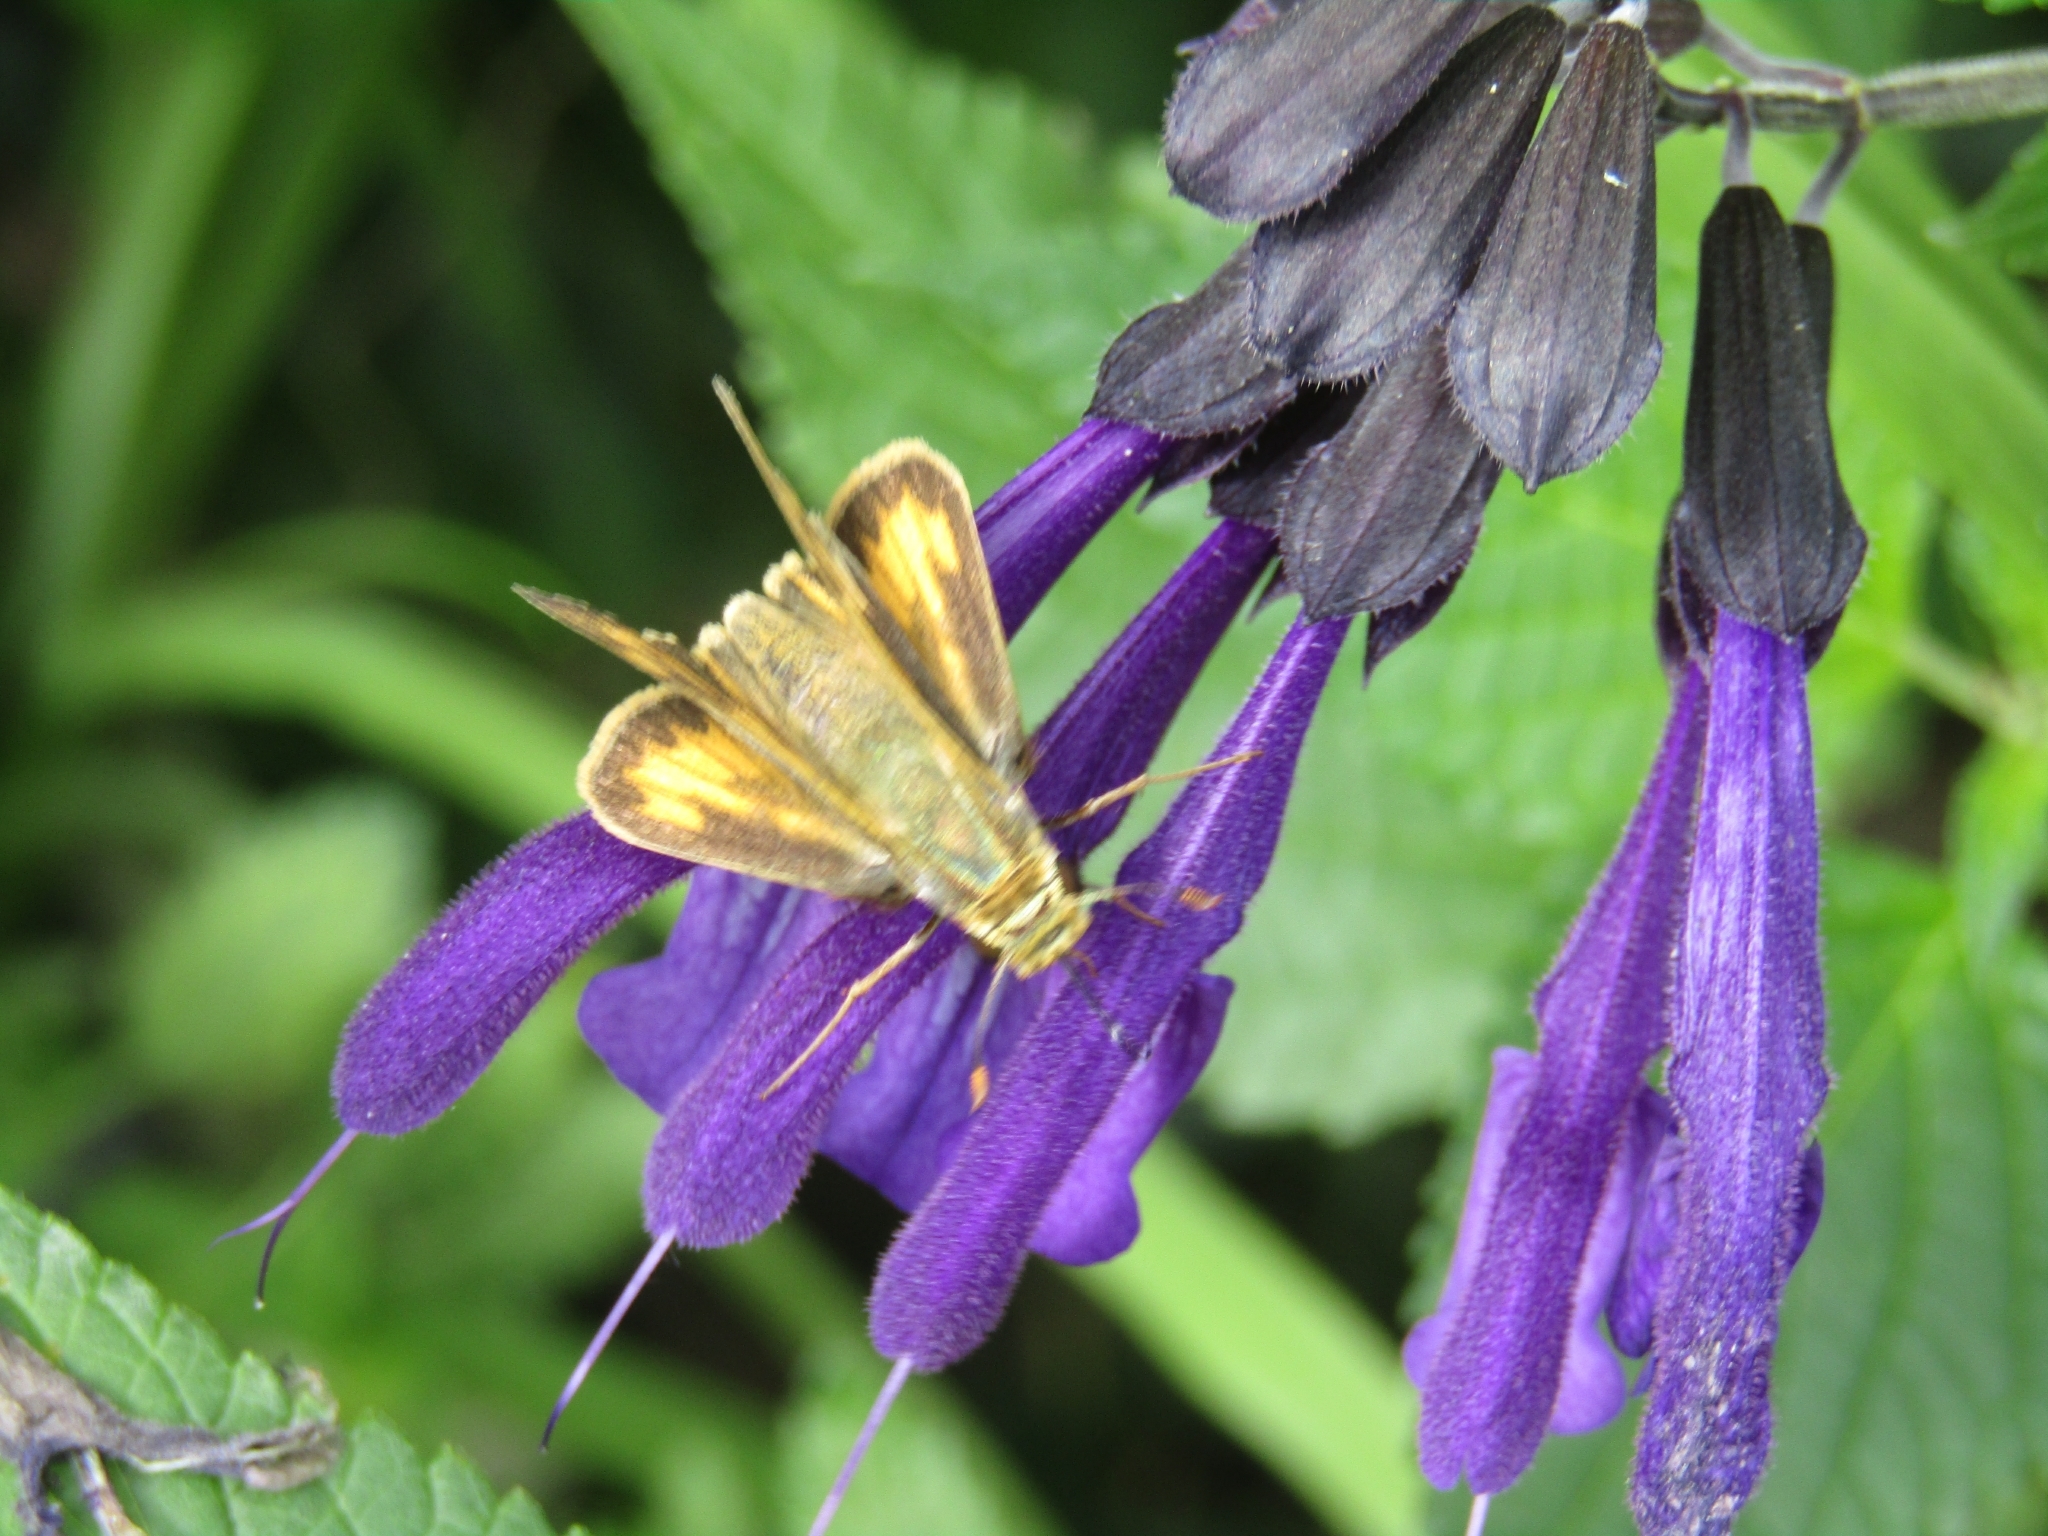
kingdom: Animalia
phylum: Arthropoda
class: Insecta
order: Lepidoptera
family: Hesperiidae
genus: Hylephila
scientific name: Hylephila phyleus
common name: Fiery skipper
